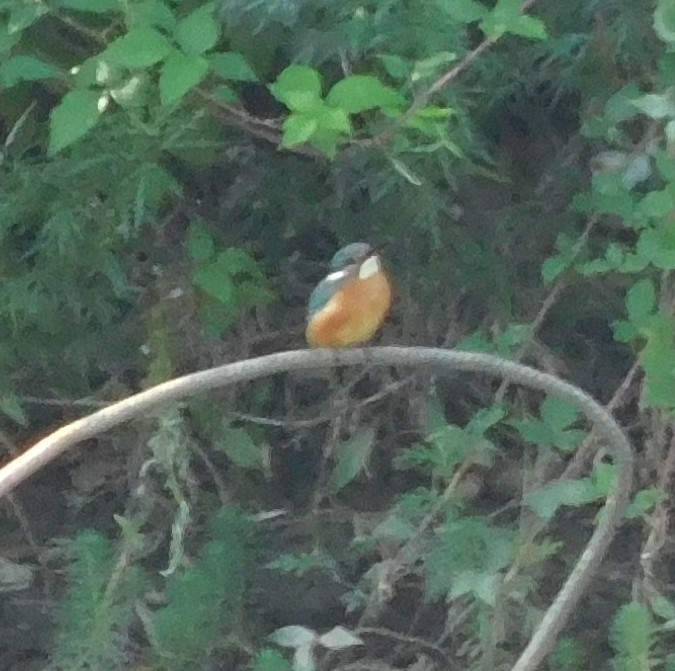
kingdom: Animalia
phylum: Chordata
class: Aves
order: Coraciiformes
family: Alcedinidae
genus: Alcedo
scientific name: Alcedo atthis
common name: Common kingfisher
